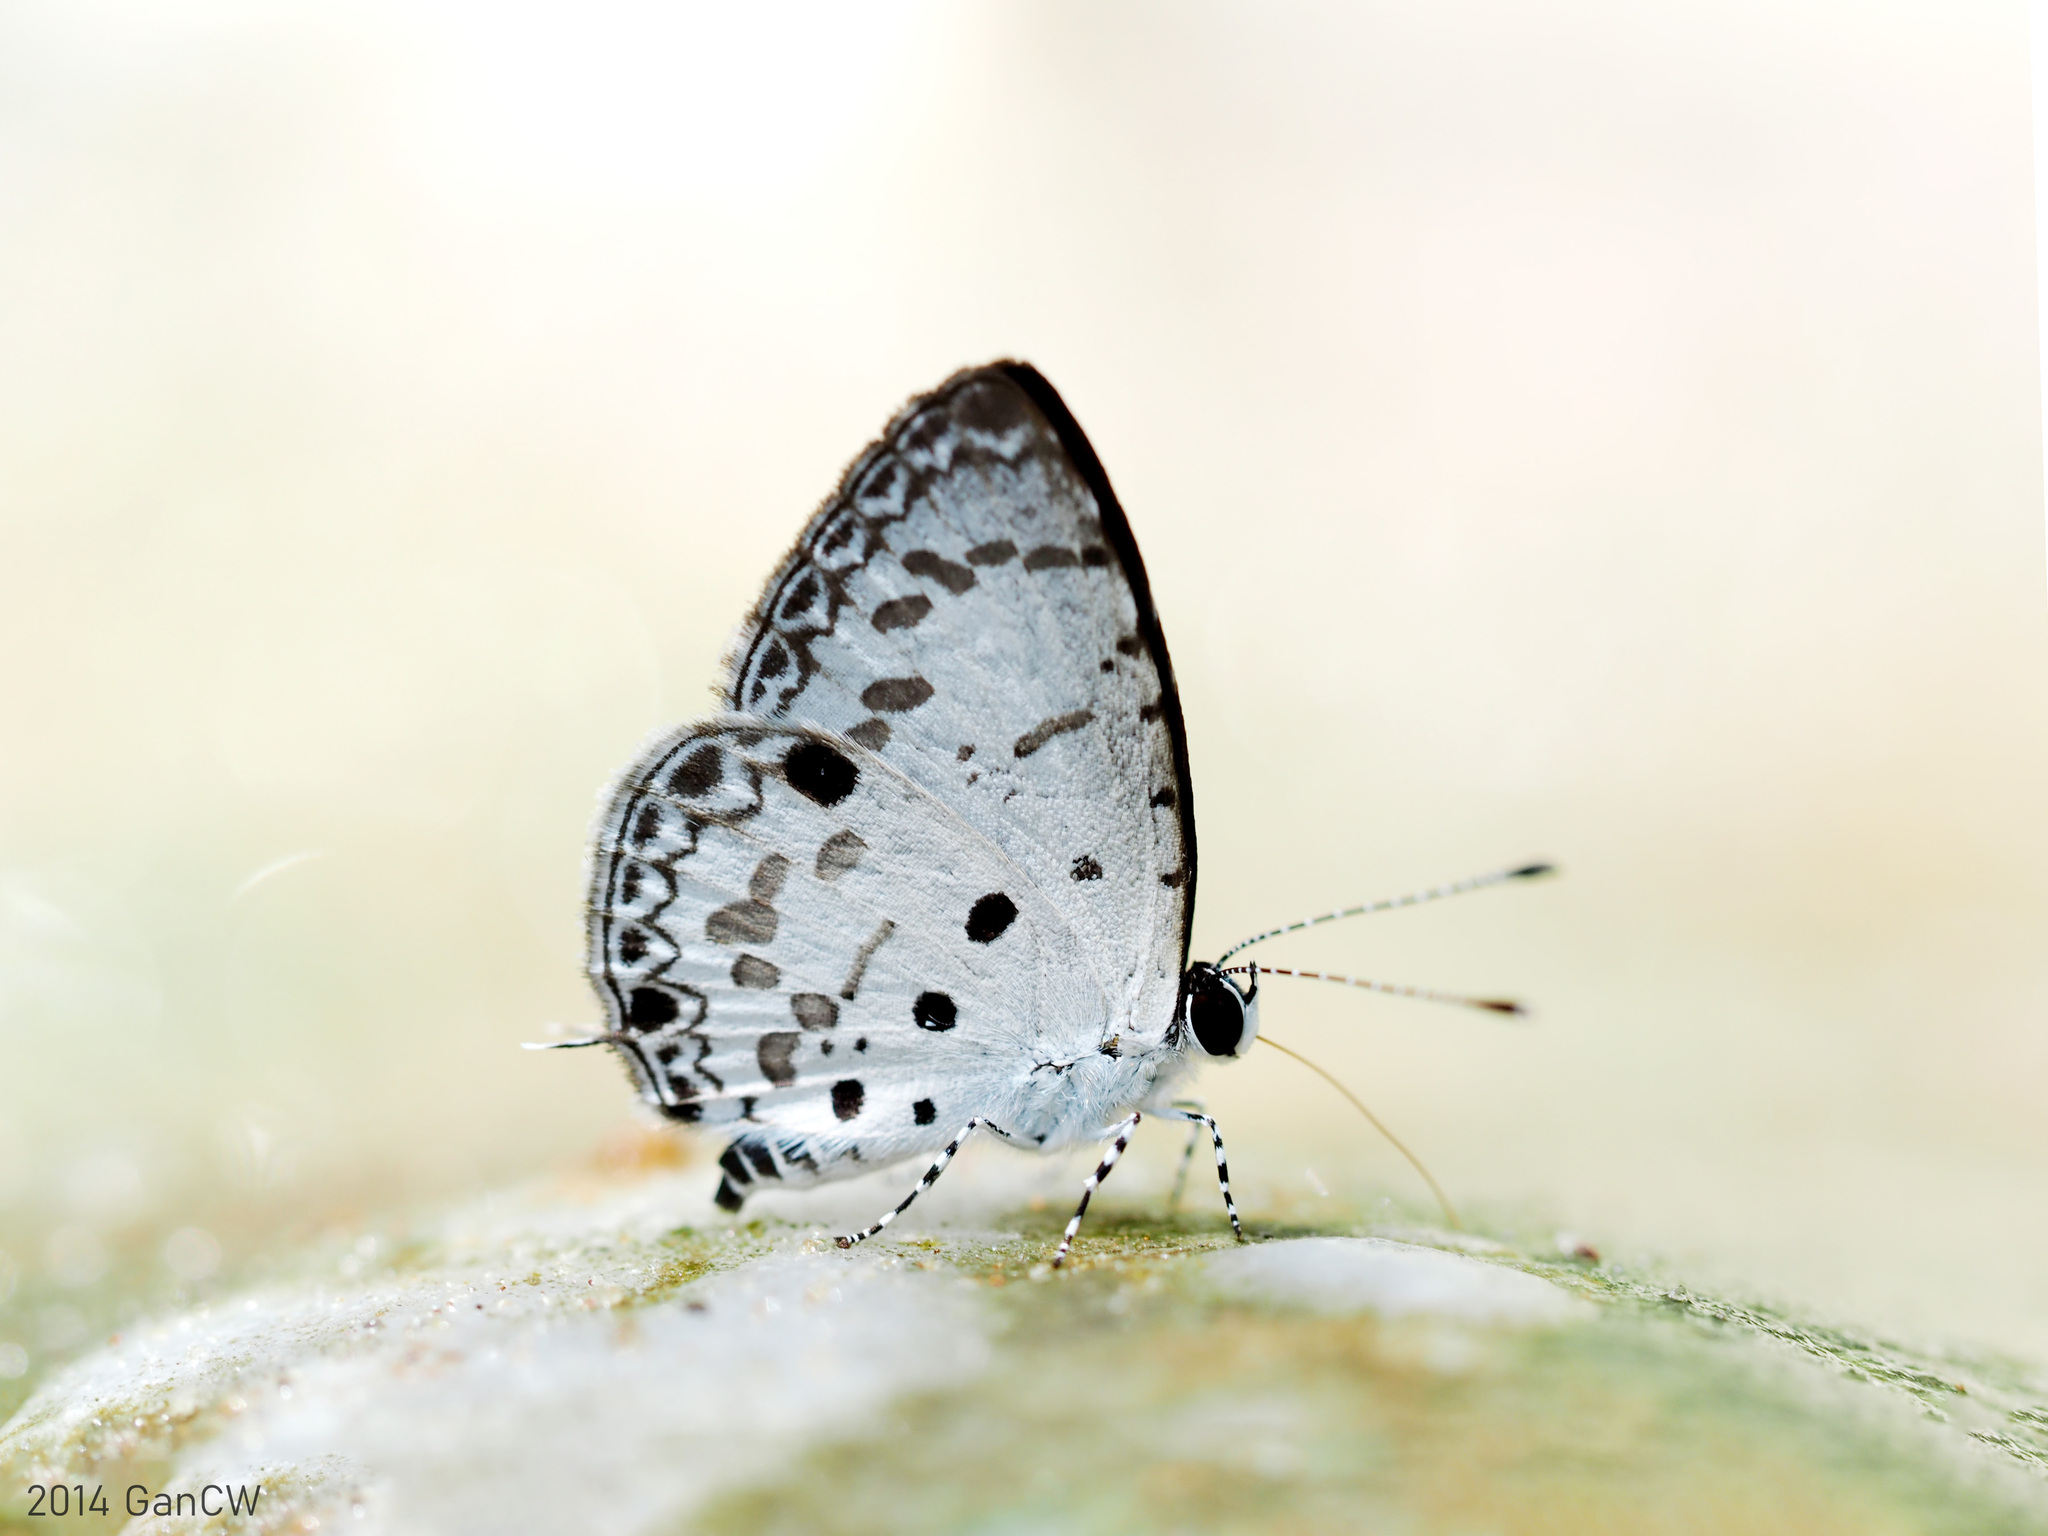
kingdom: Animalia
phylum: Arthropoda
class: Insecta
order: Lepidoptera
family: Lycaenidae
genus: Megisba
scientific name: Megisba malaya
